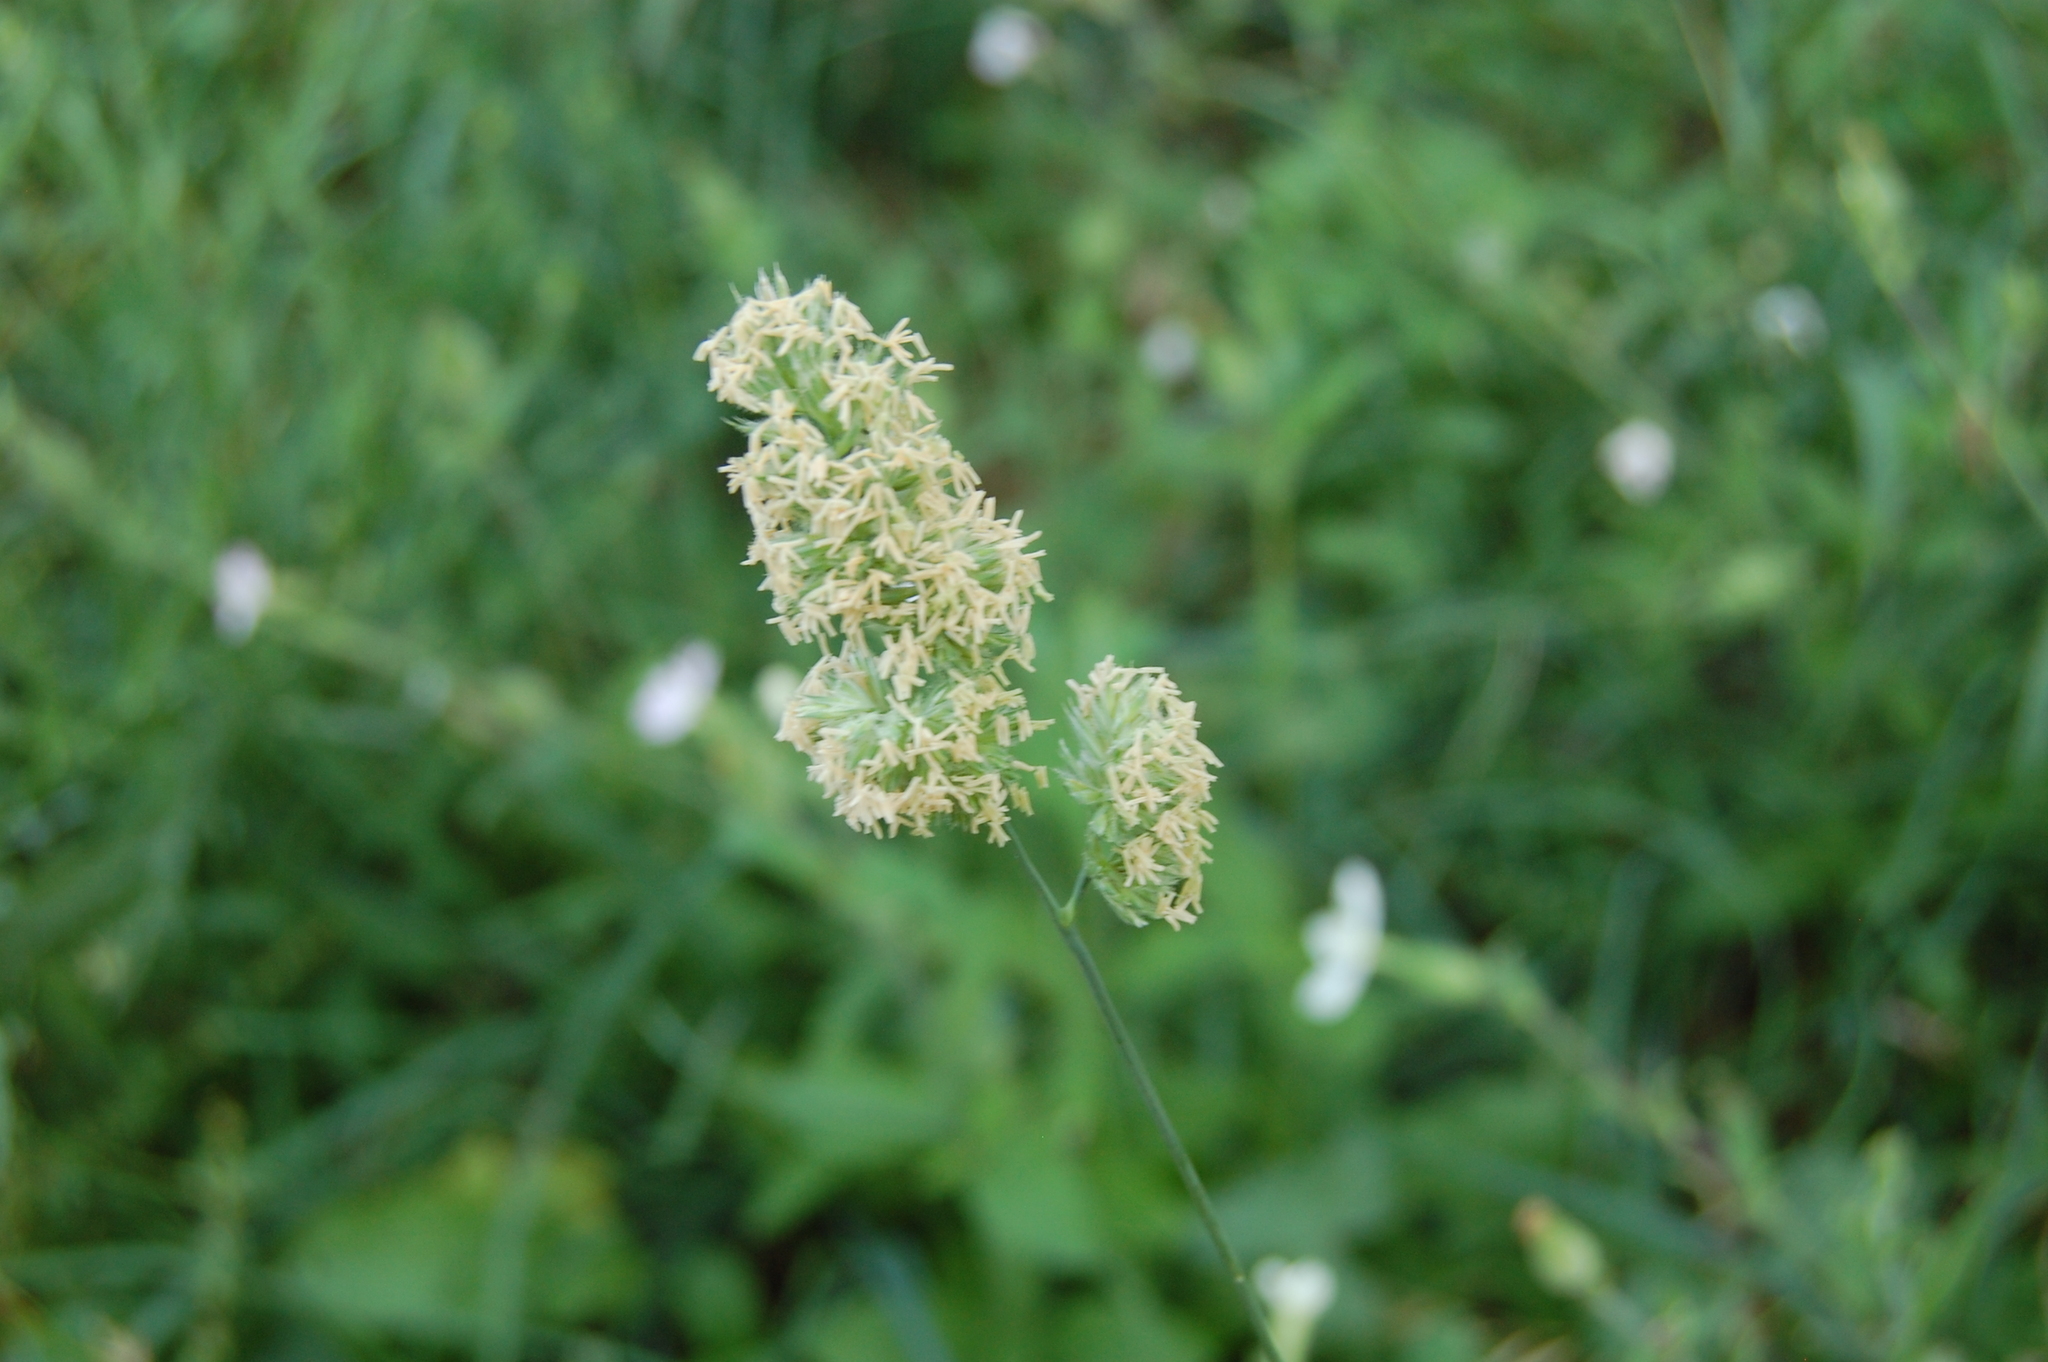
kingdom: Plantae
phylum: Tracheophyta
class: Liliopsida
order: Poales
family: Poaceae
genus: Dactylis
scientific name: Dactylis glomerata
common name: Orchardgrass
